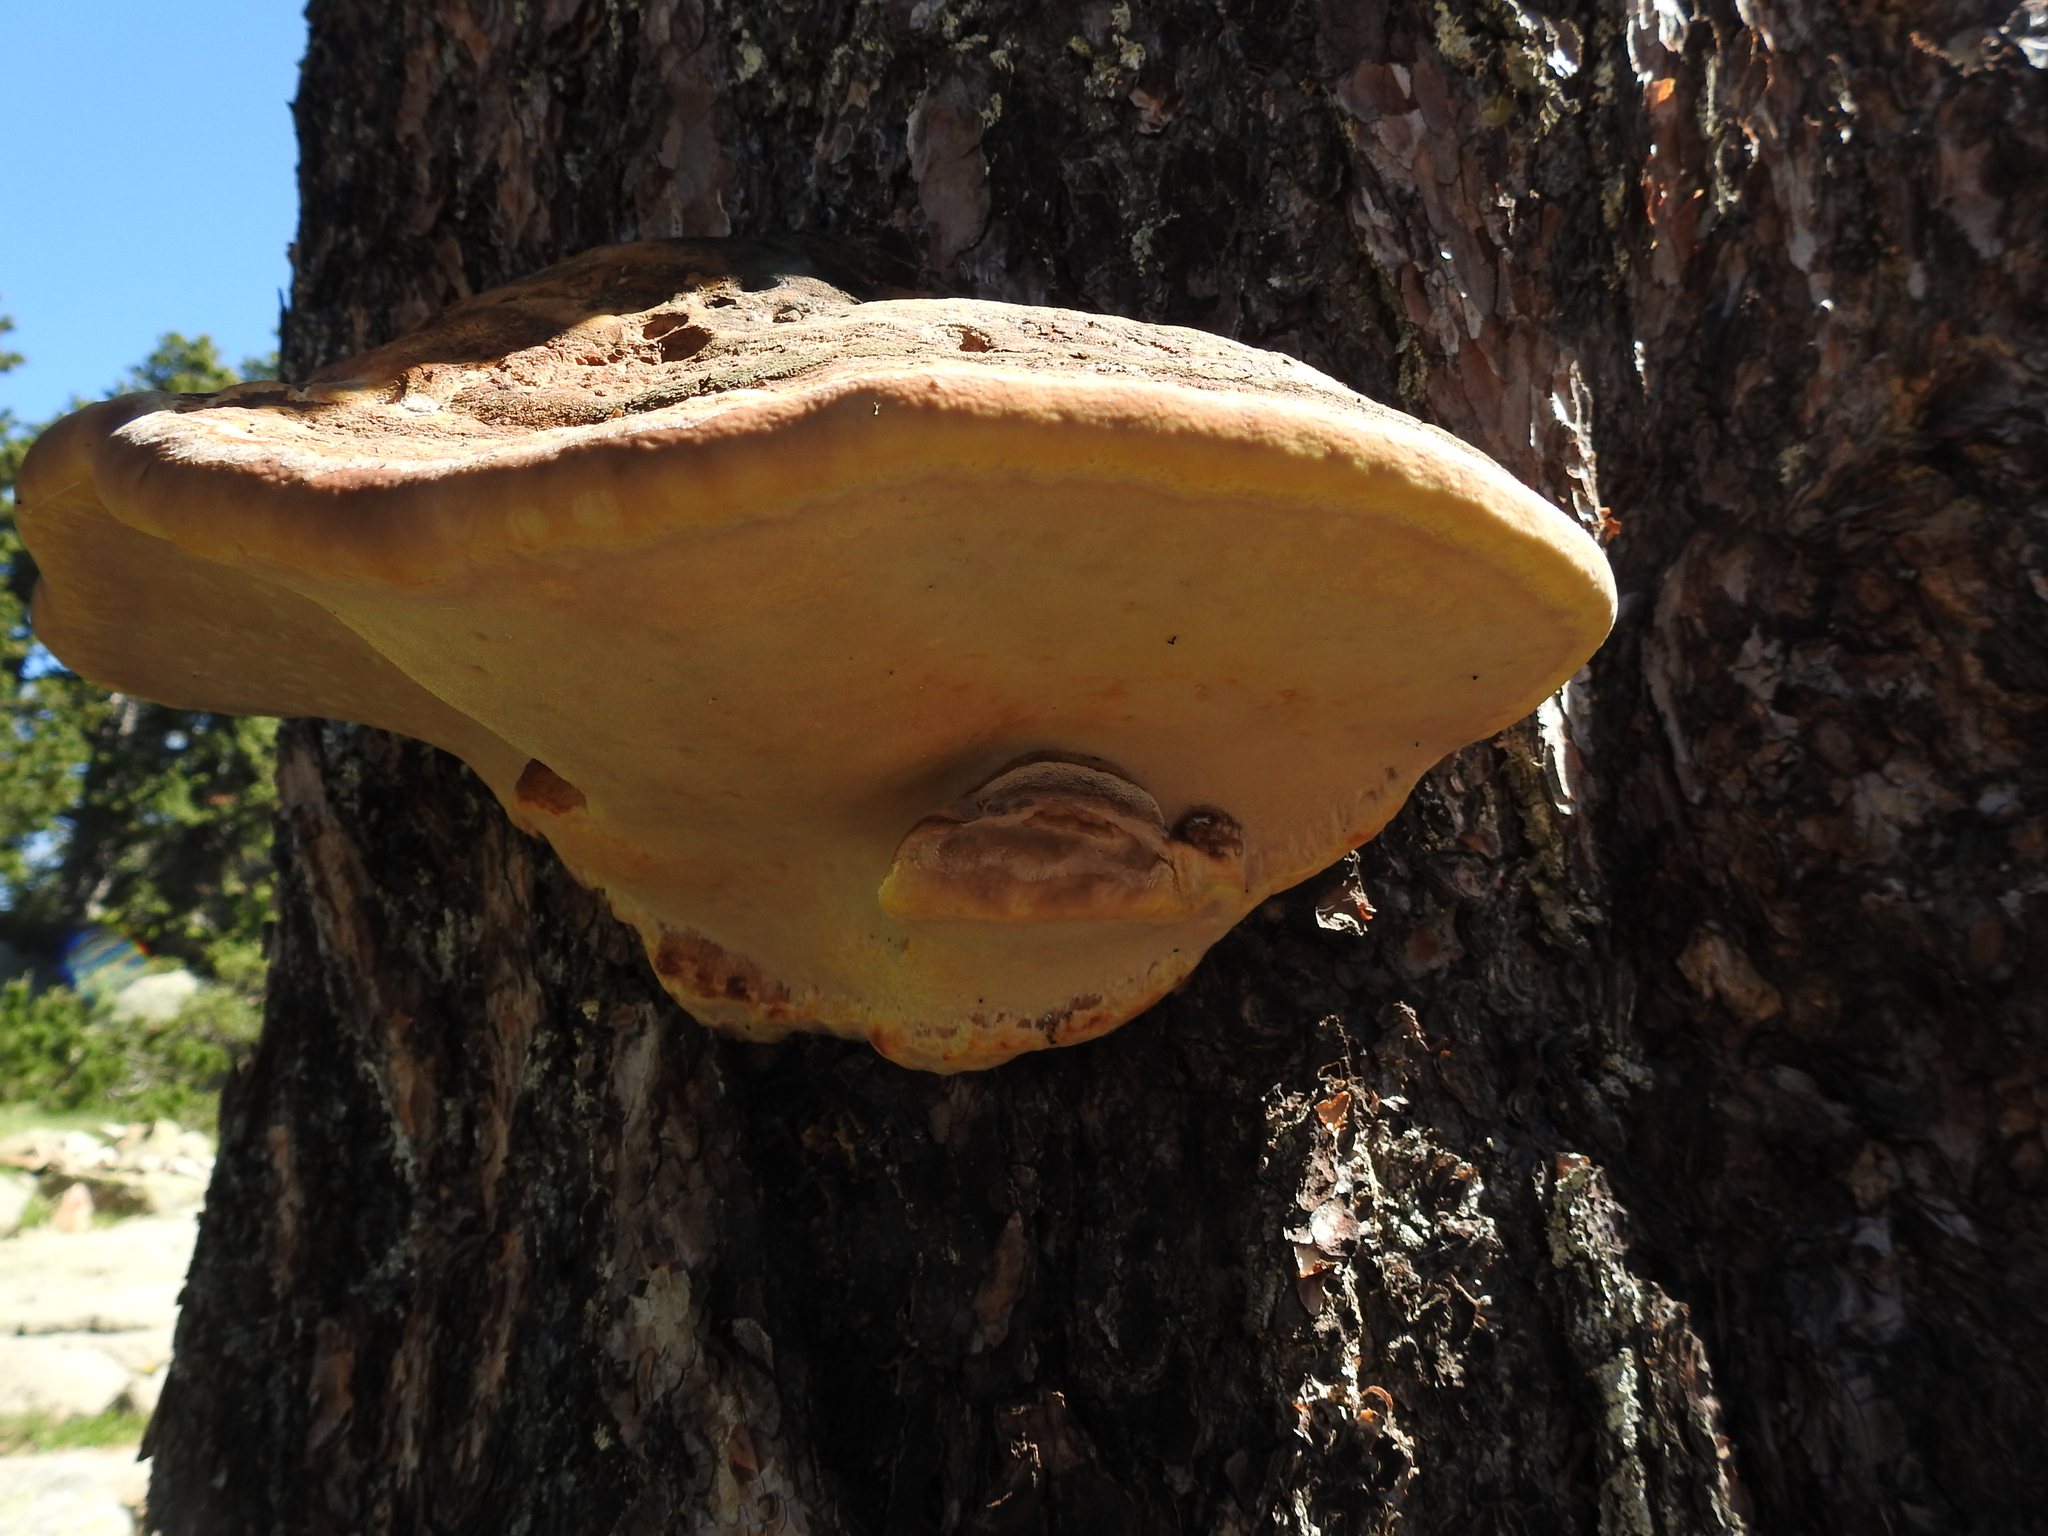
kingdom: Fungi
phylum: Basidiomycota
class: Agaricomycetes
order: Polyporales
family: Fomitopsidaceae
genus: Fomitopsis
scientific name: Fomitopsis pinicola
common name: Red-belted bracket
